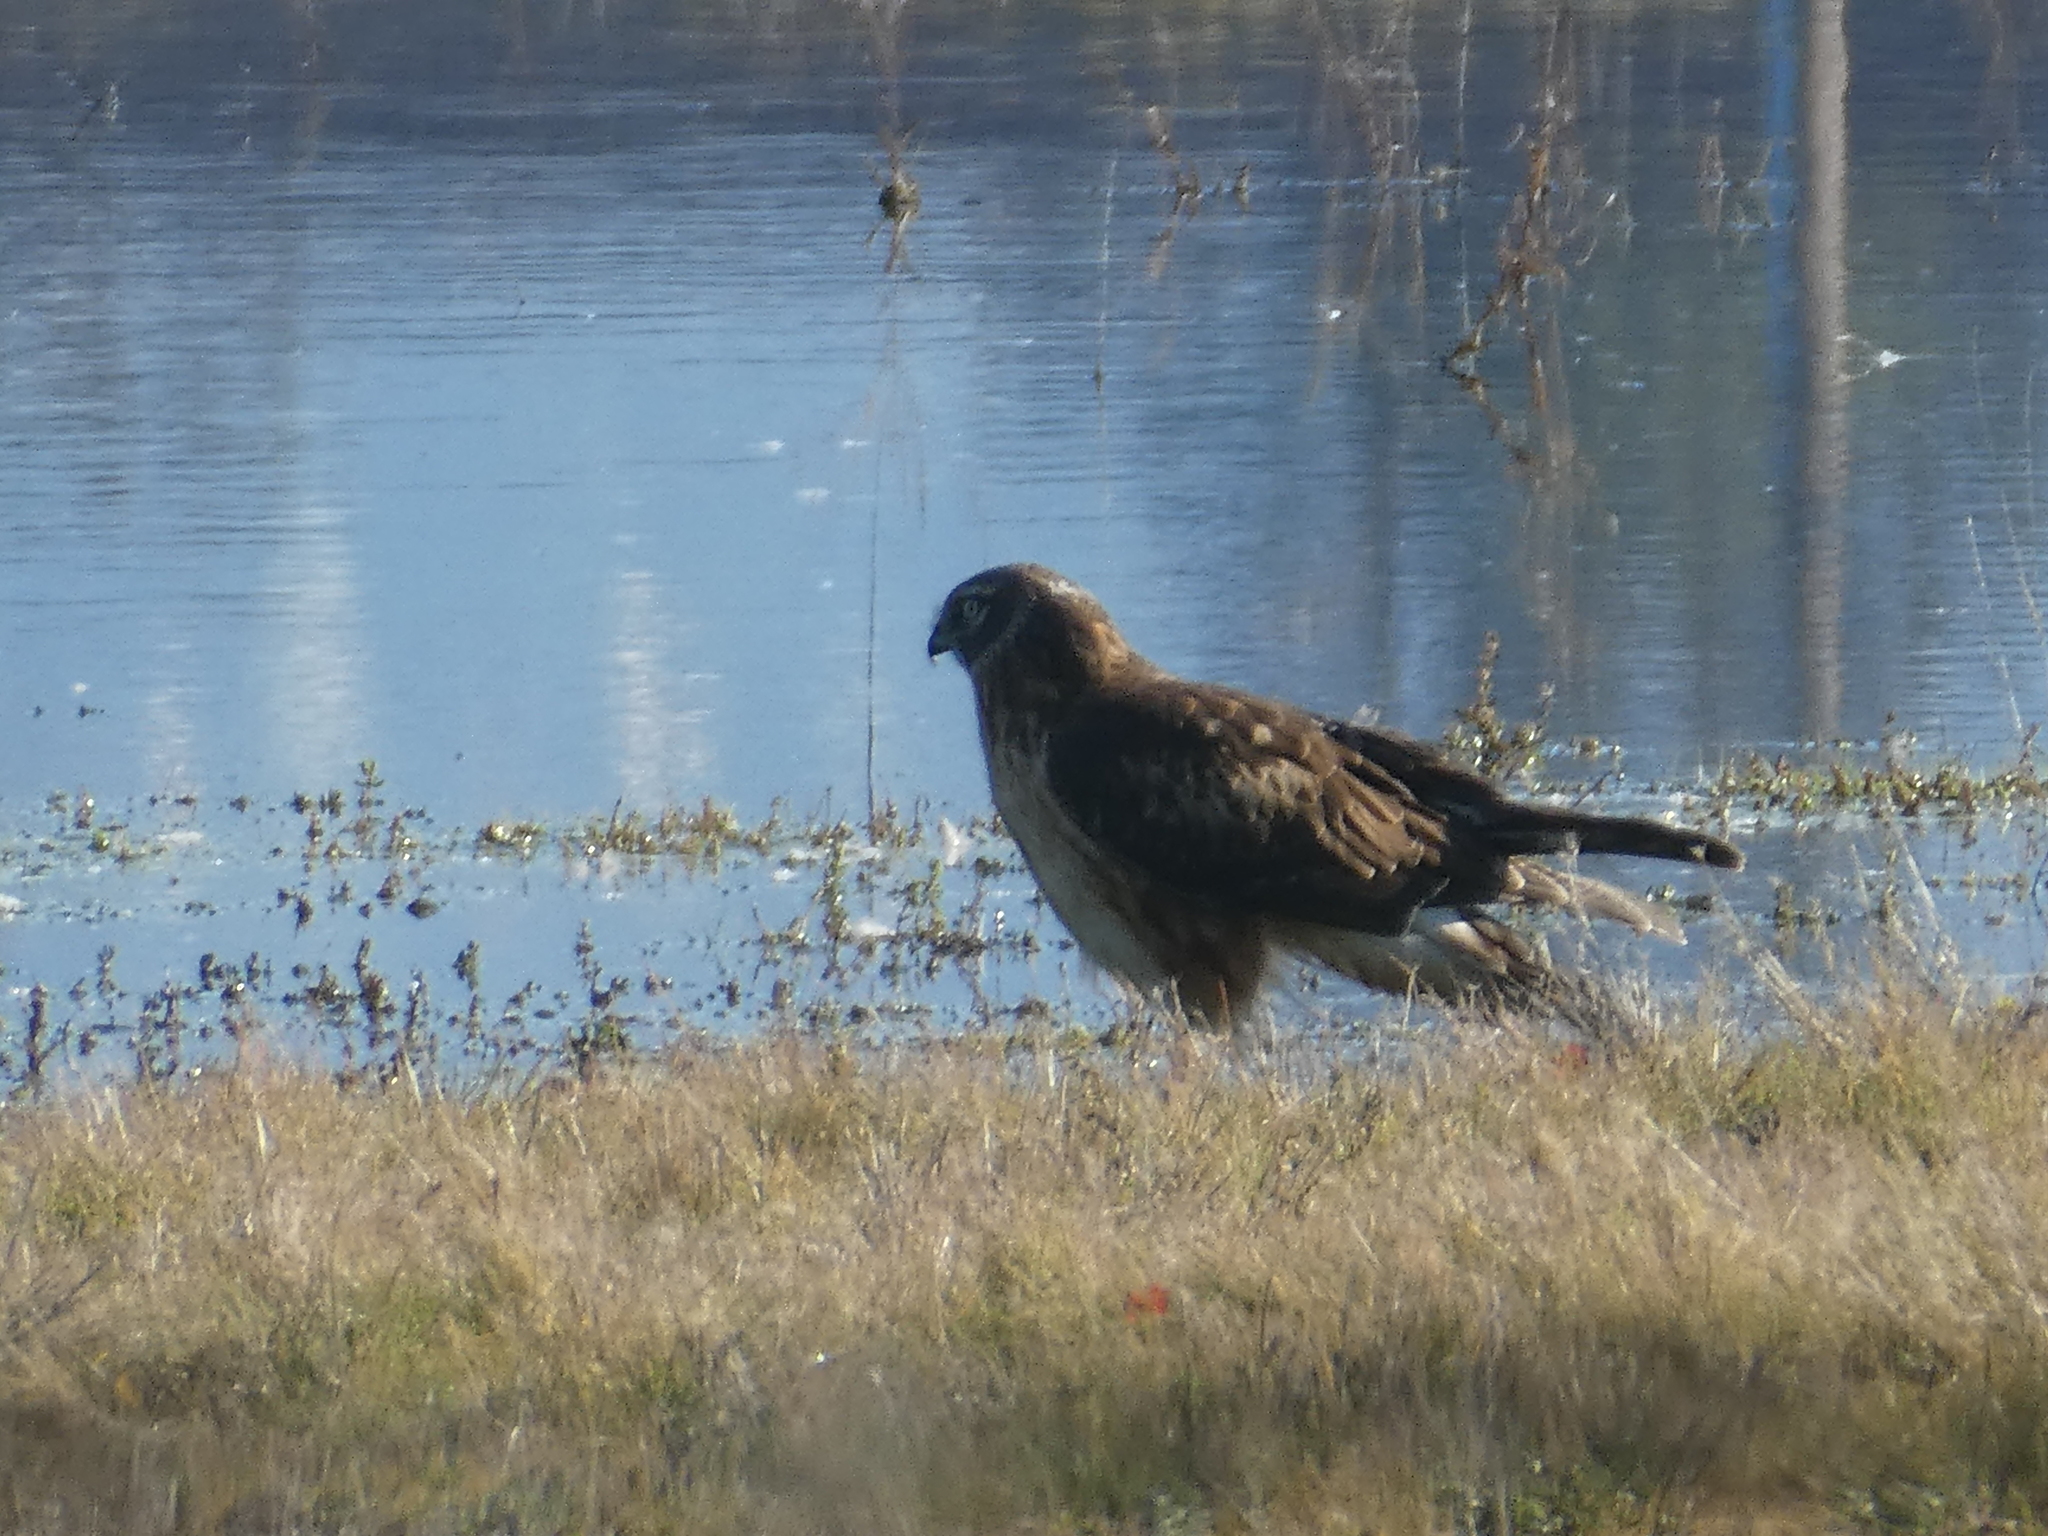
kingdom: Animalia
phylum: Chordata
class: Aves
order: Accipitriformes
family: Accipitridae
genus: Circus
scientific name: Circus cyaneus
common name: Hen harrier
